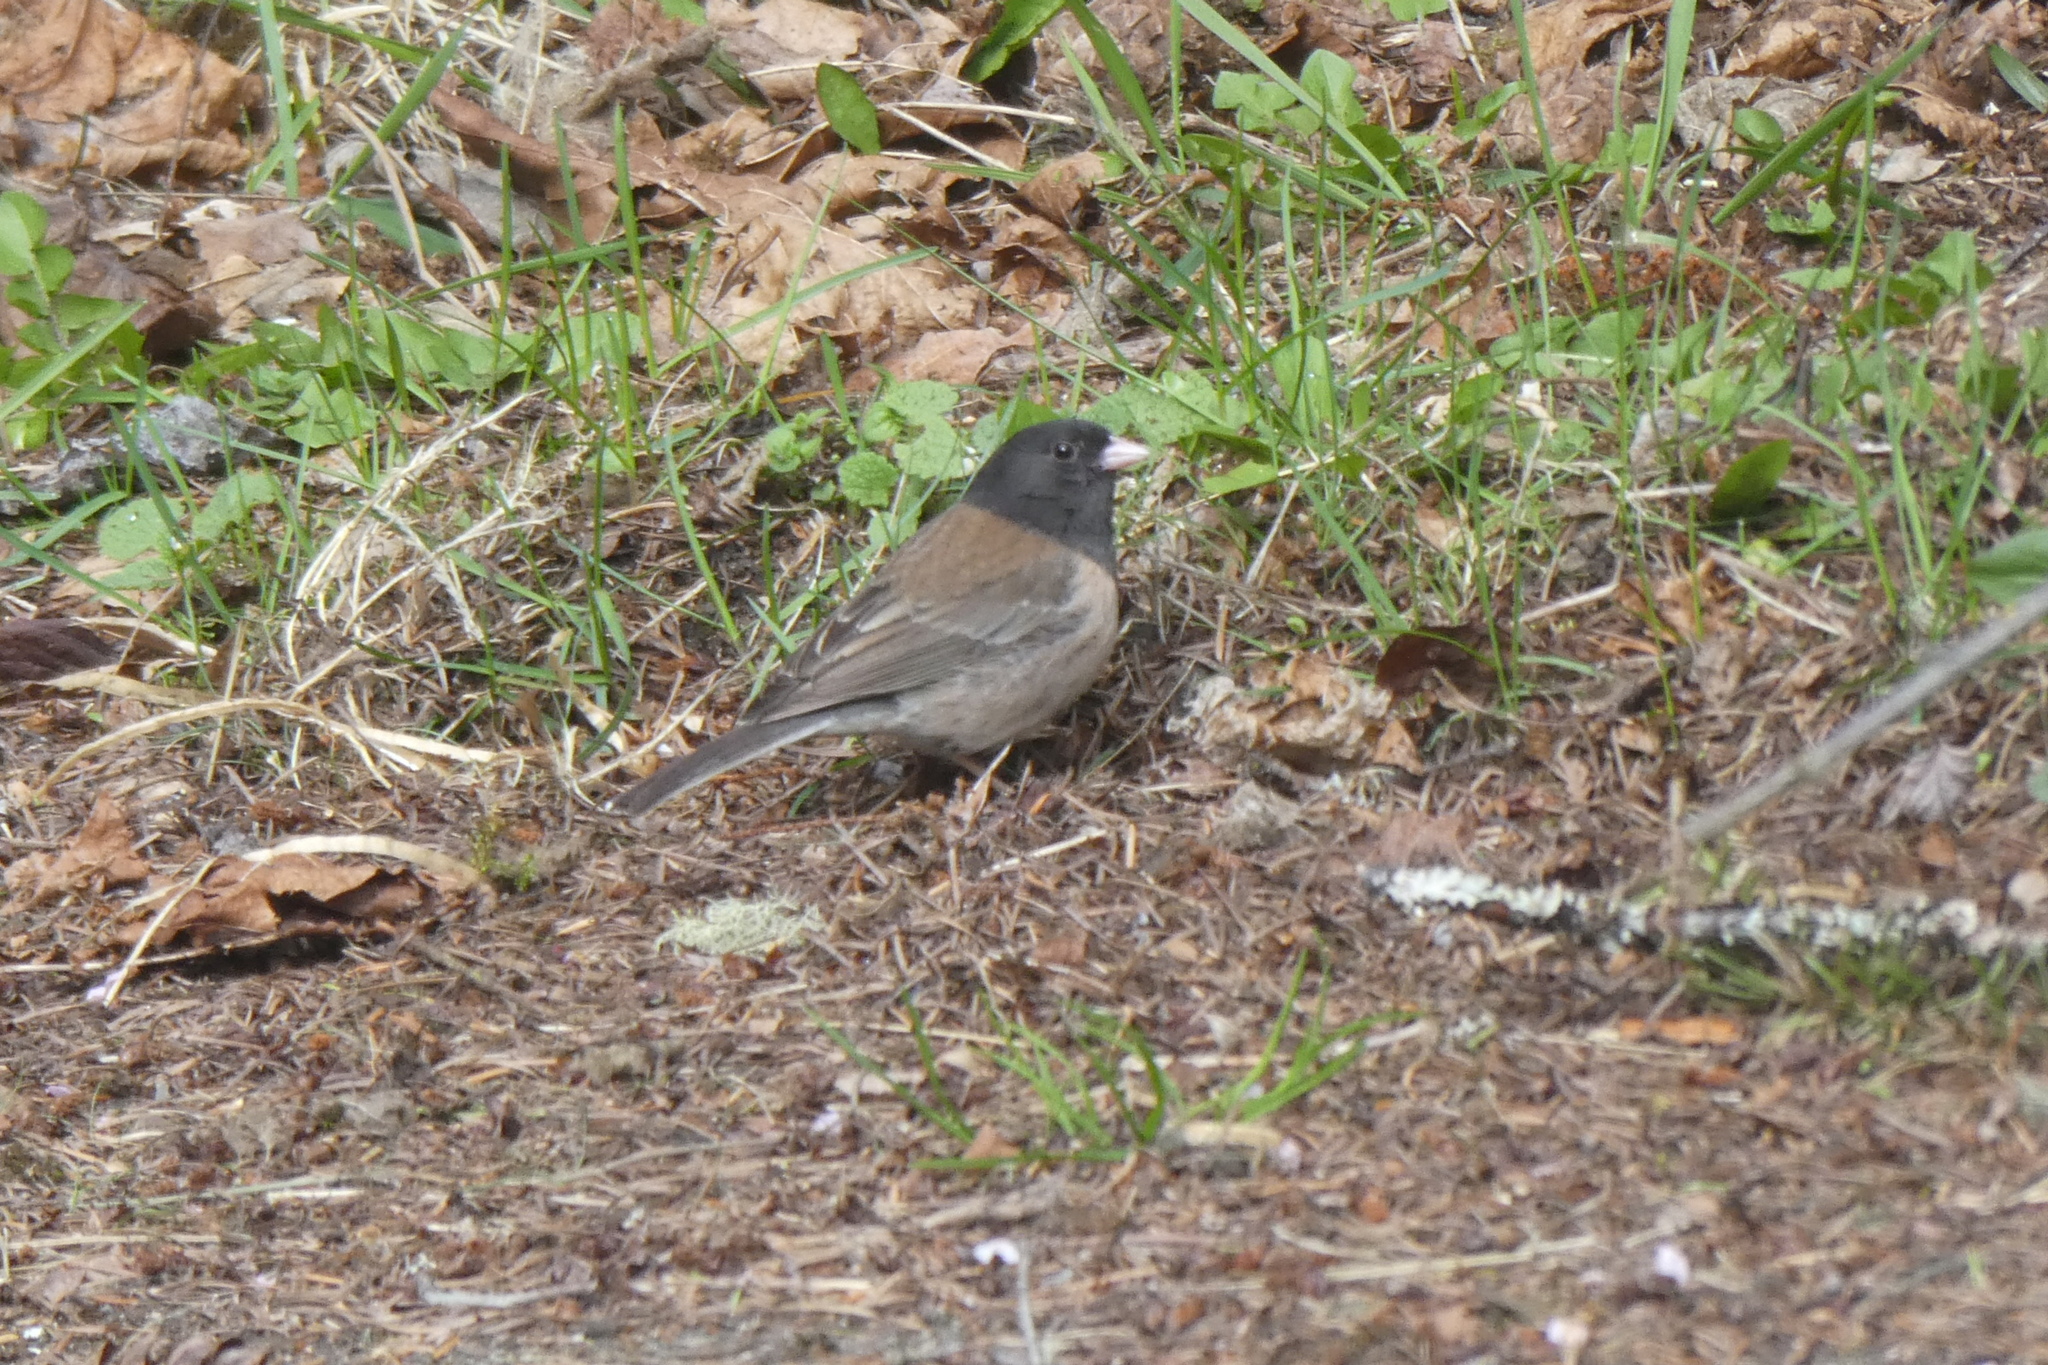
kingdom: Animalia
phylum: Chordata
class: Aves
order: Passeriformes
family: Passerellidae
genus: Junco
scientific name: Junco hyemalis
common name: Dark-eyed junco
